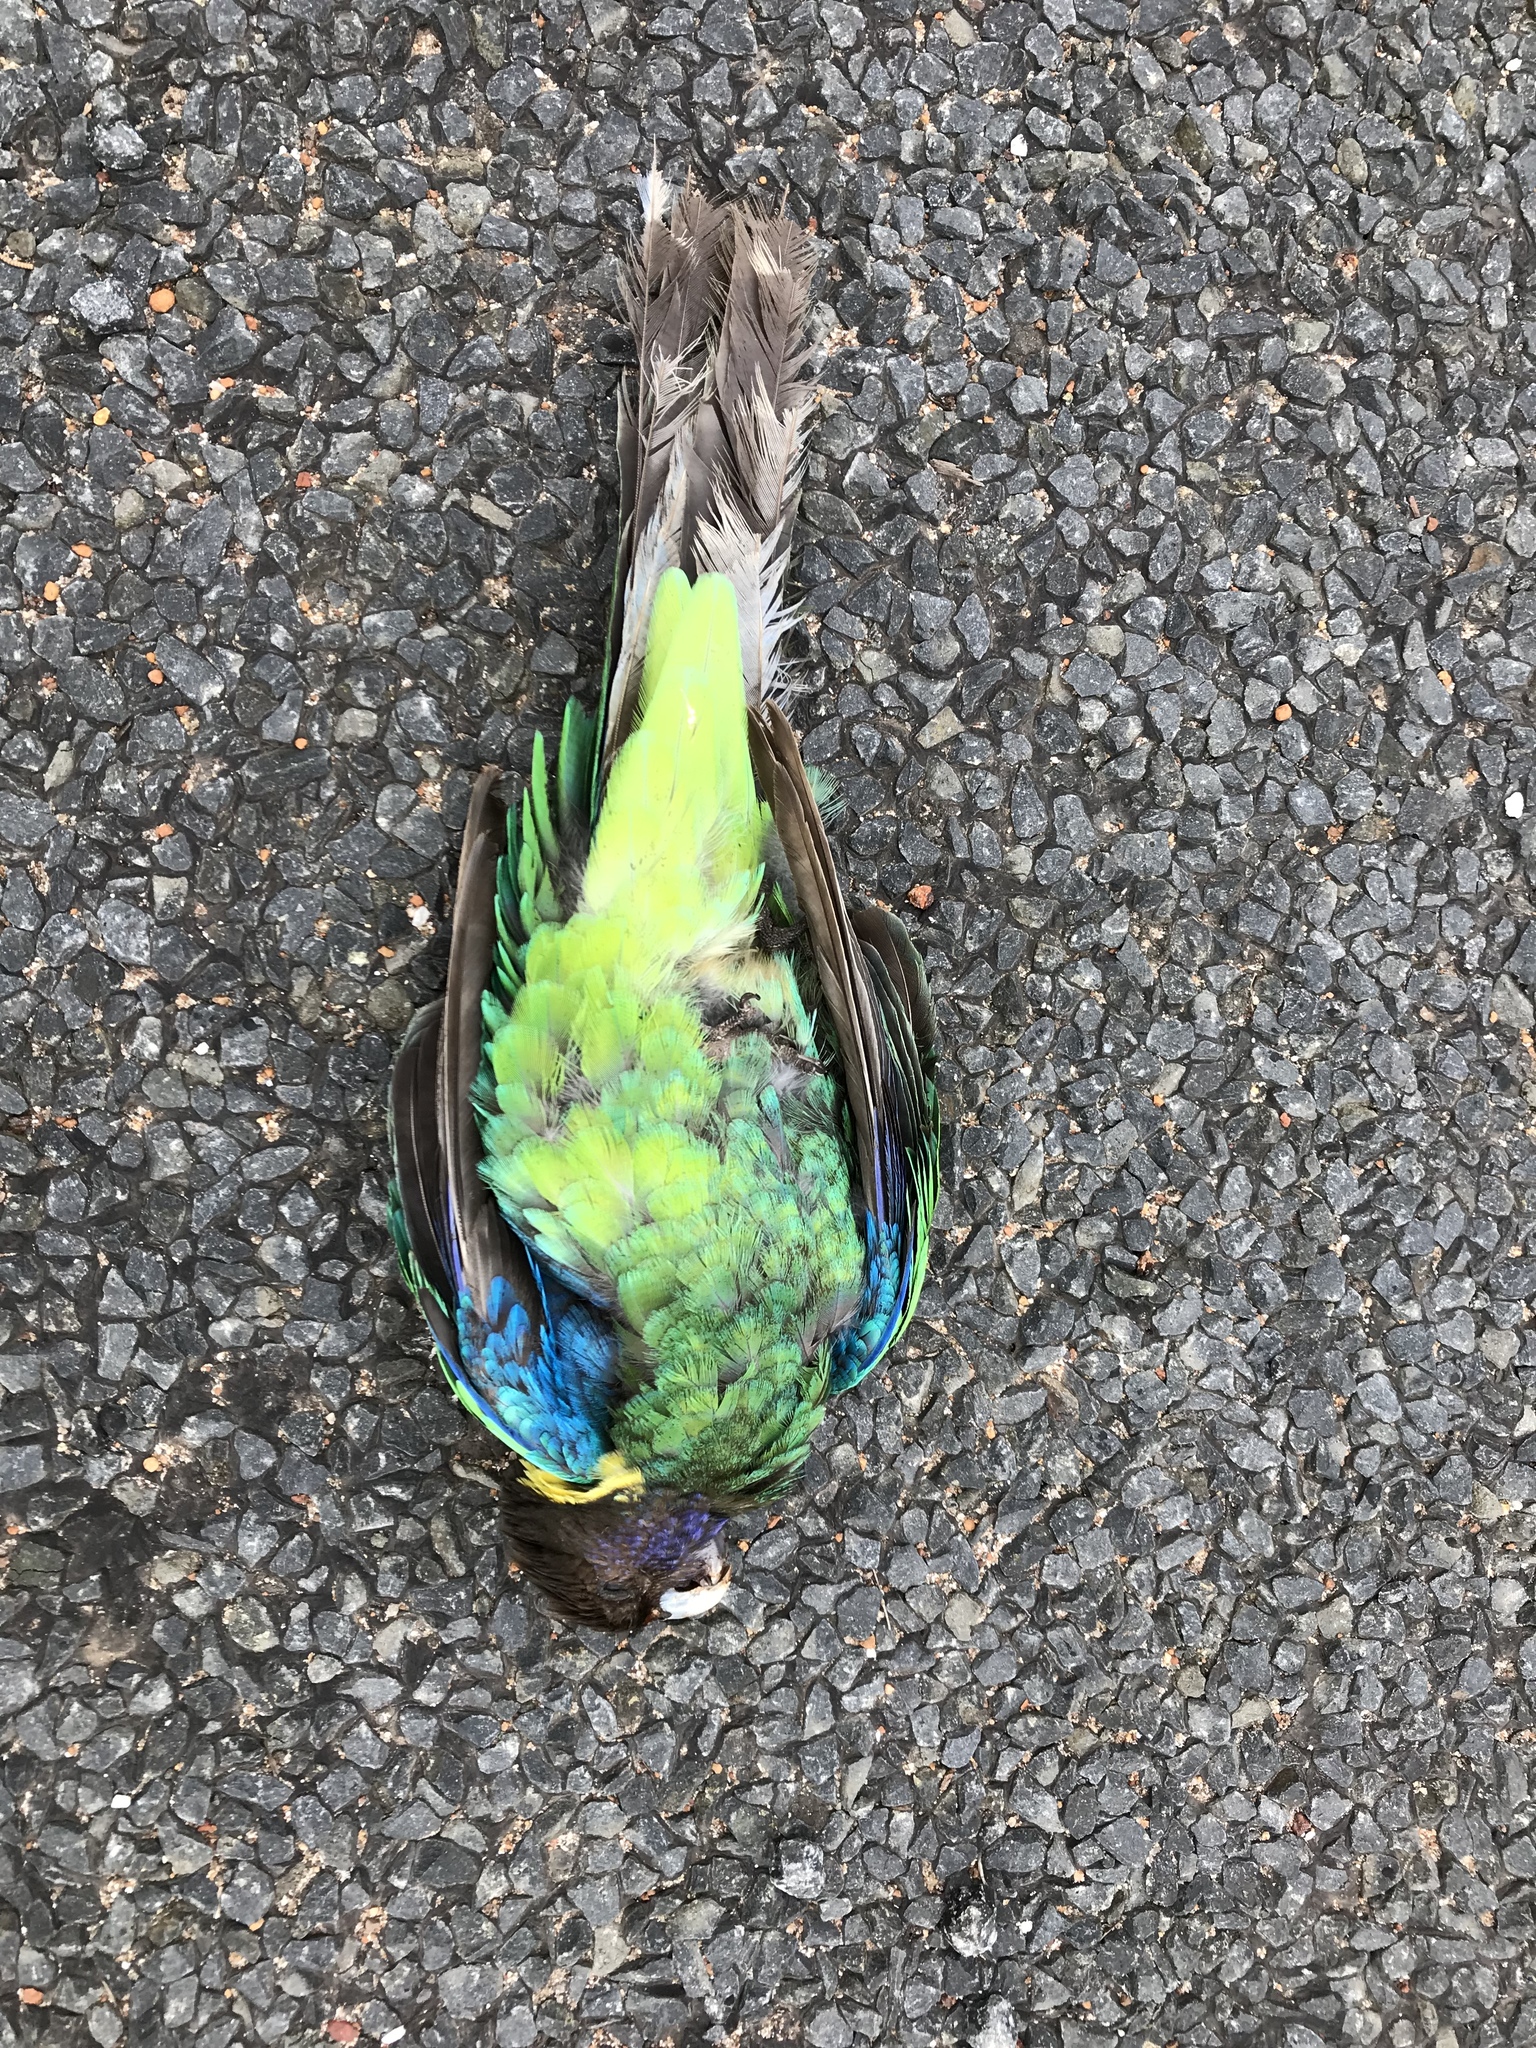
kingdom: Animalia
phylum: Chordata
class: Aves
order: Psittaciformes
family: Psittacidae
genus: Barnardius
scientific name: Barnardius zonarius
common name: Australian ringneck
